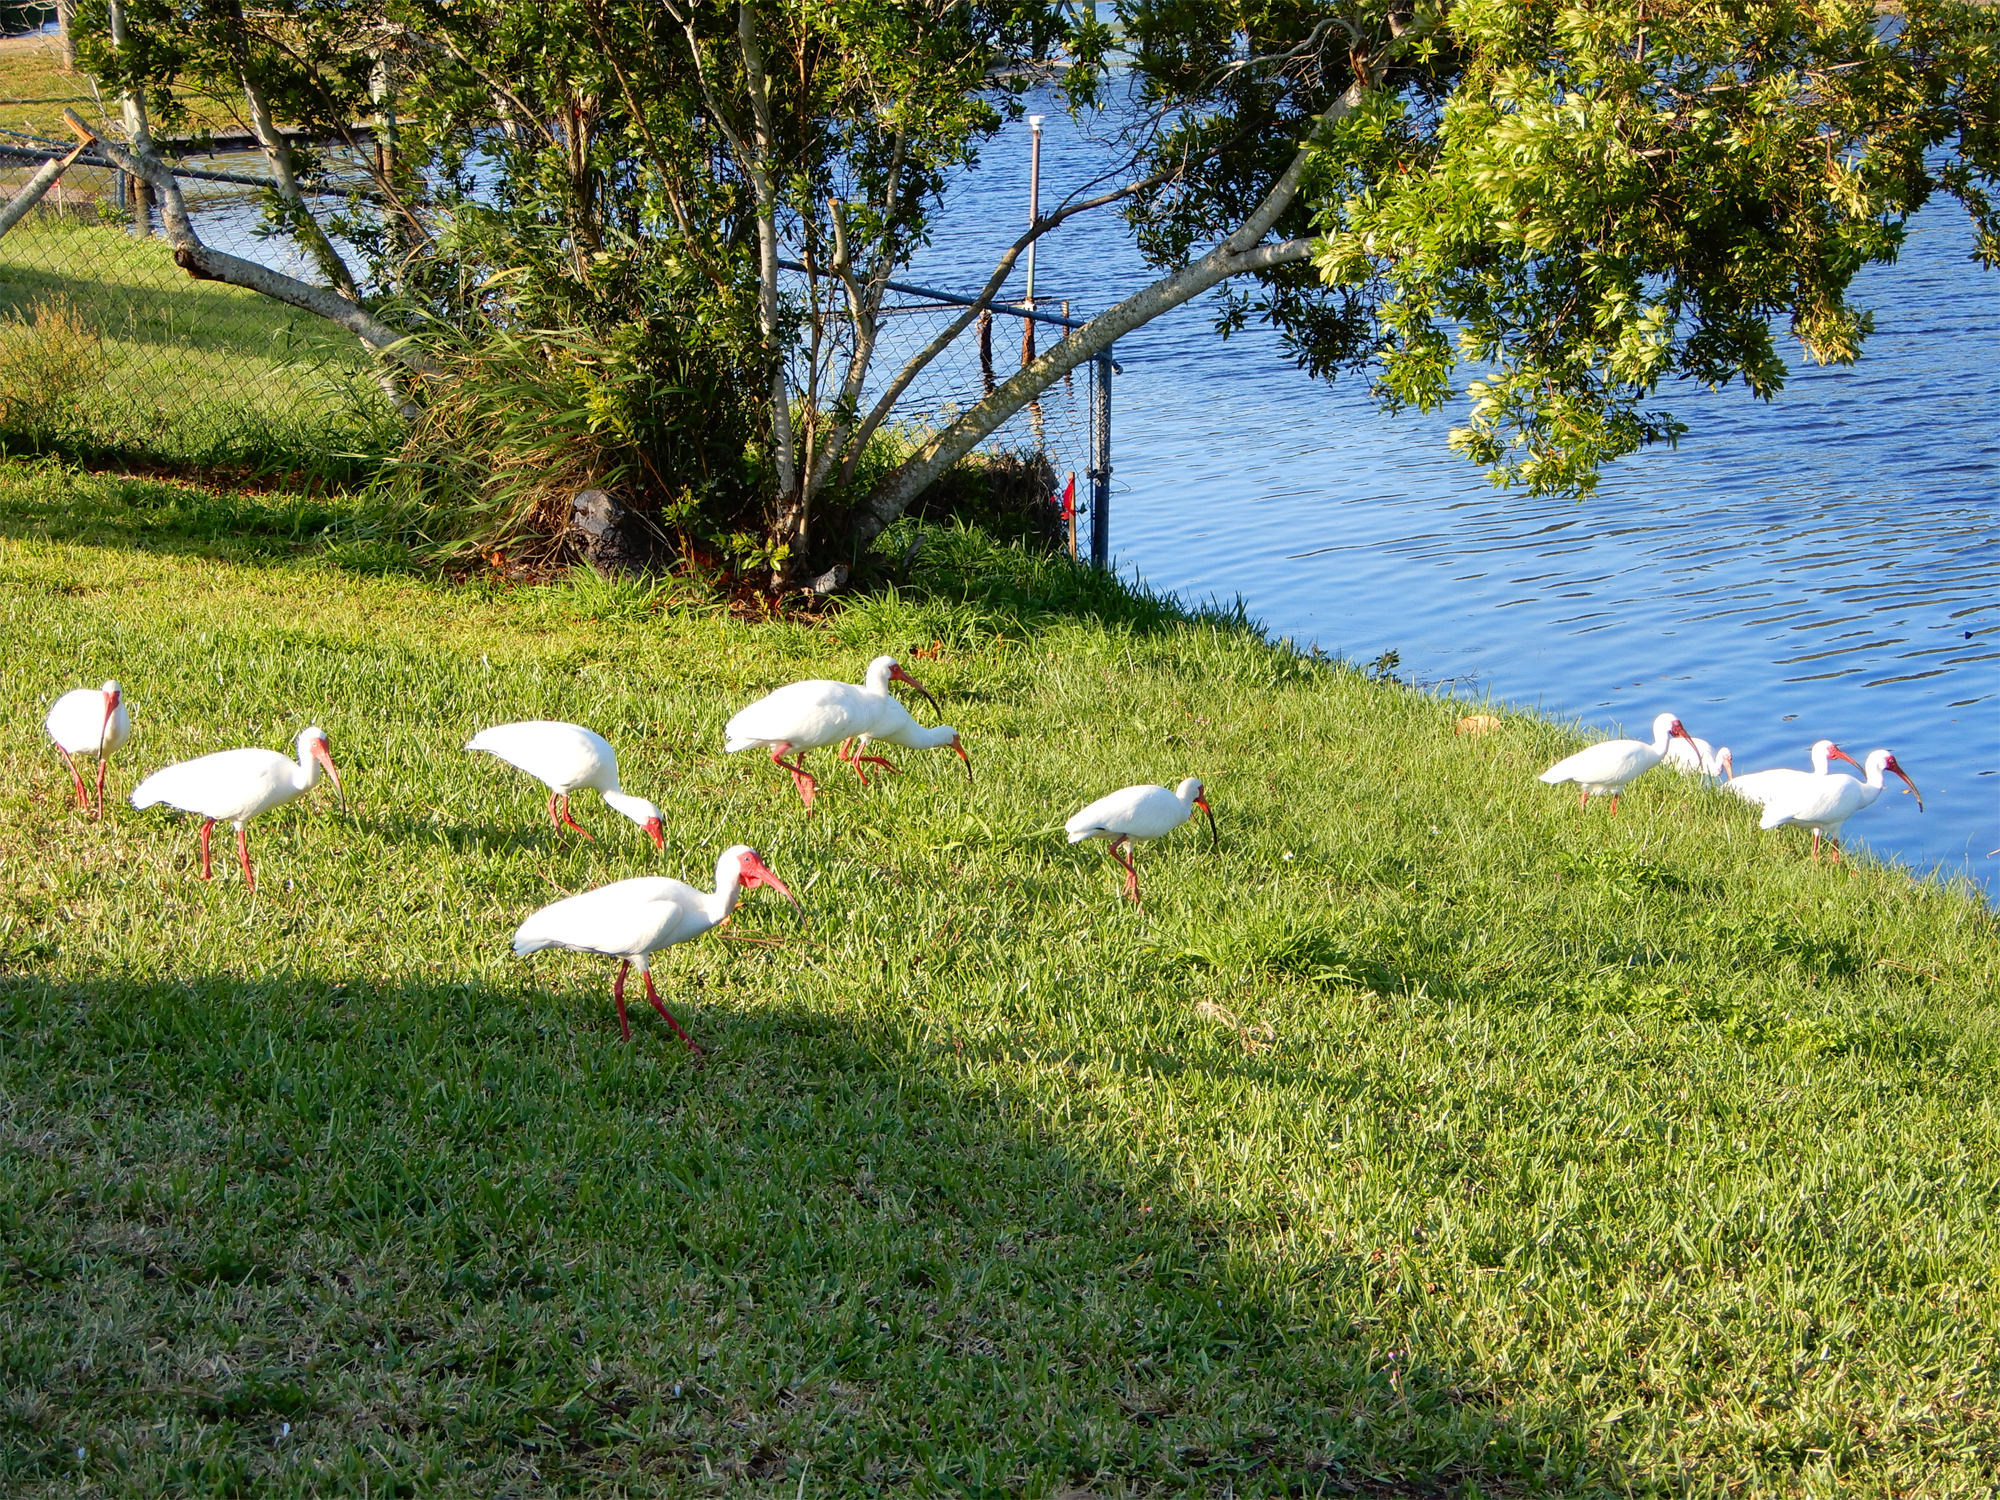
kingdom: Animalia
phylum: Chordata
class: Aves
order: Pelecaniformes
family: Threskiornithidae
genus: Eudocimus
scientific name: Eudocimus albus
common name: White ibis
